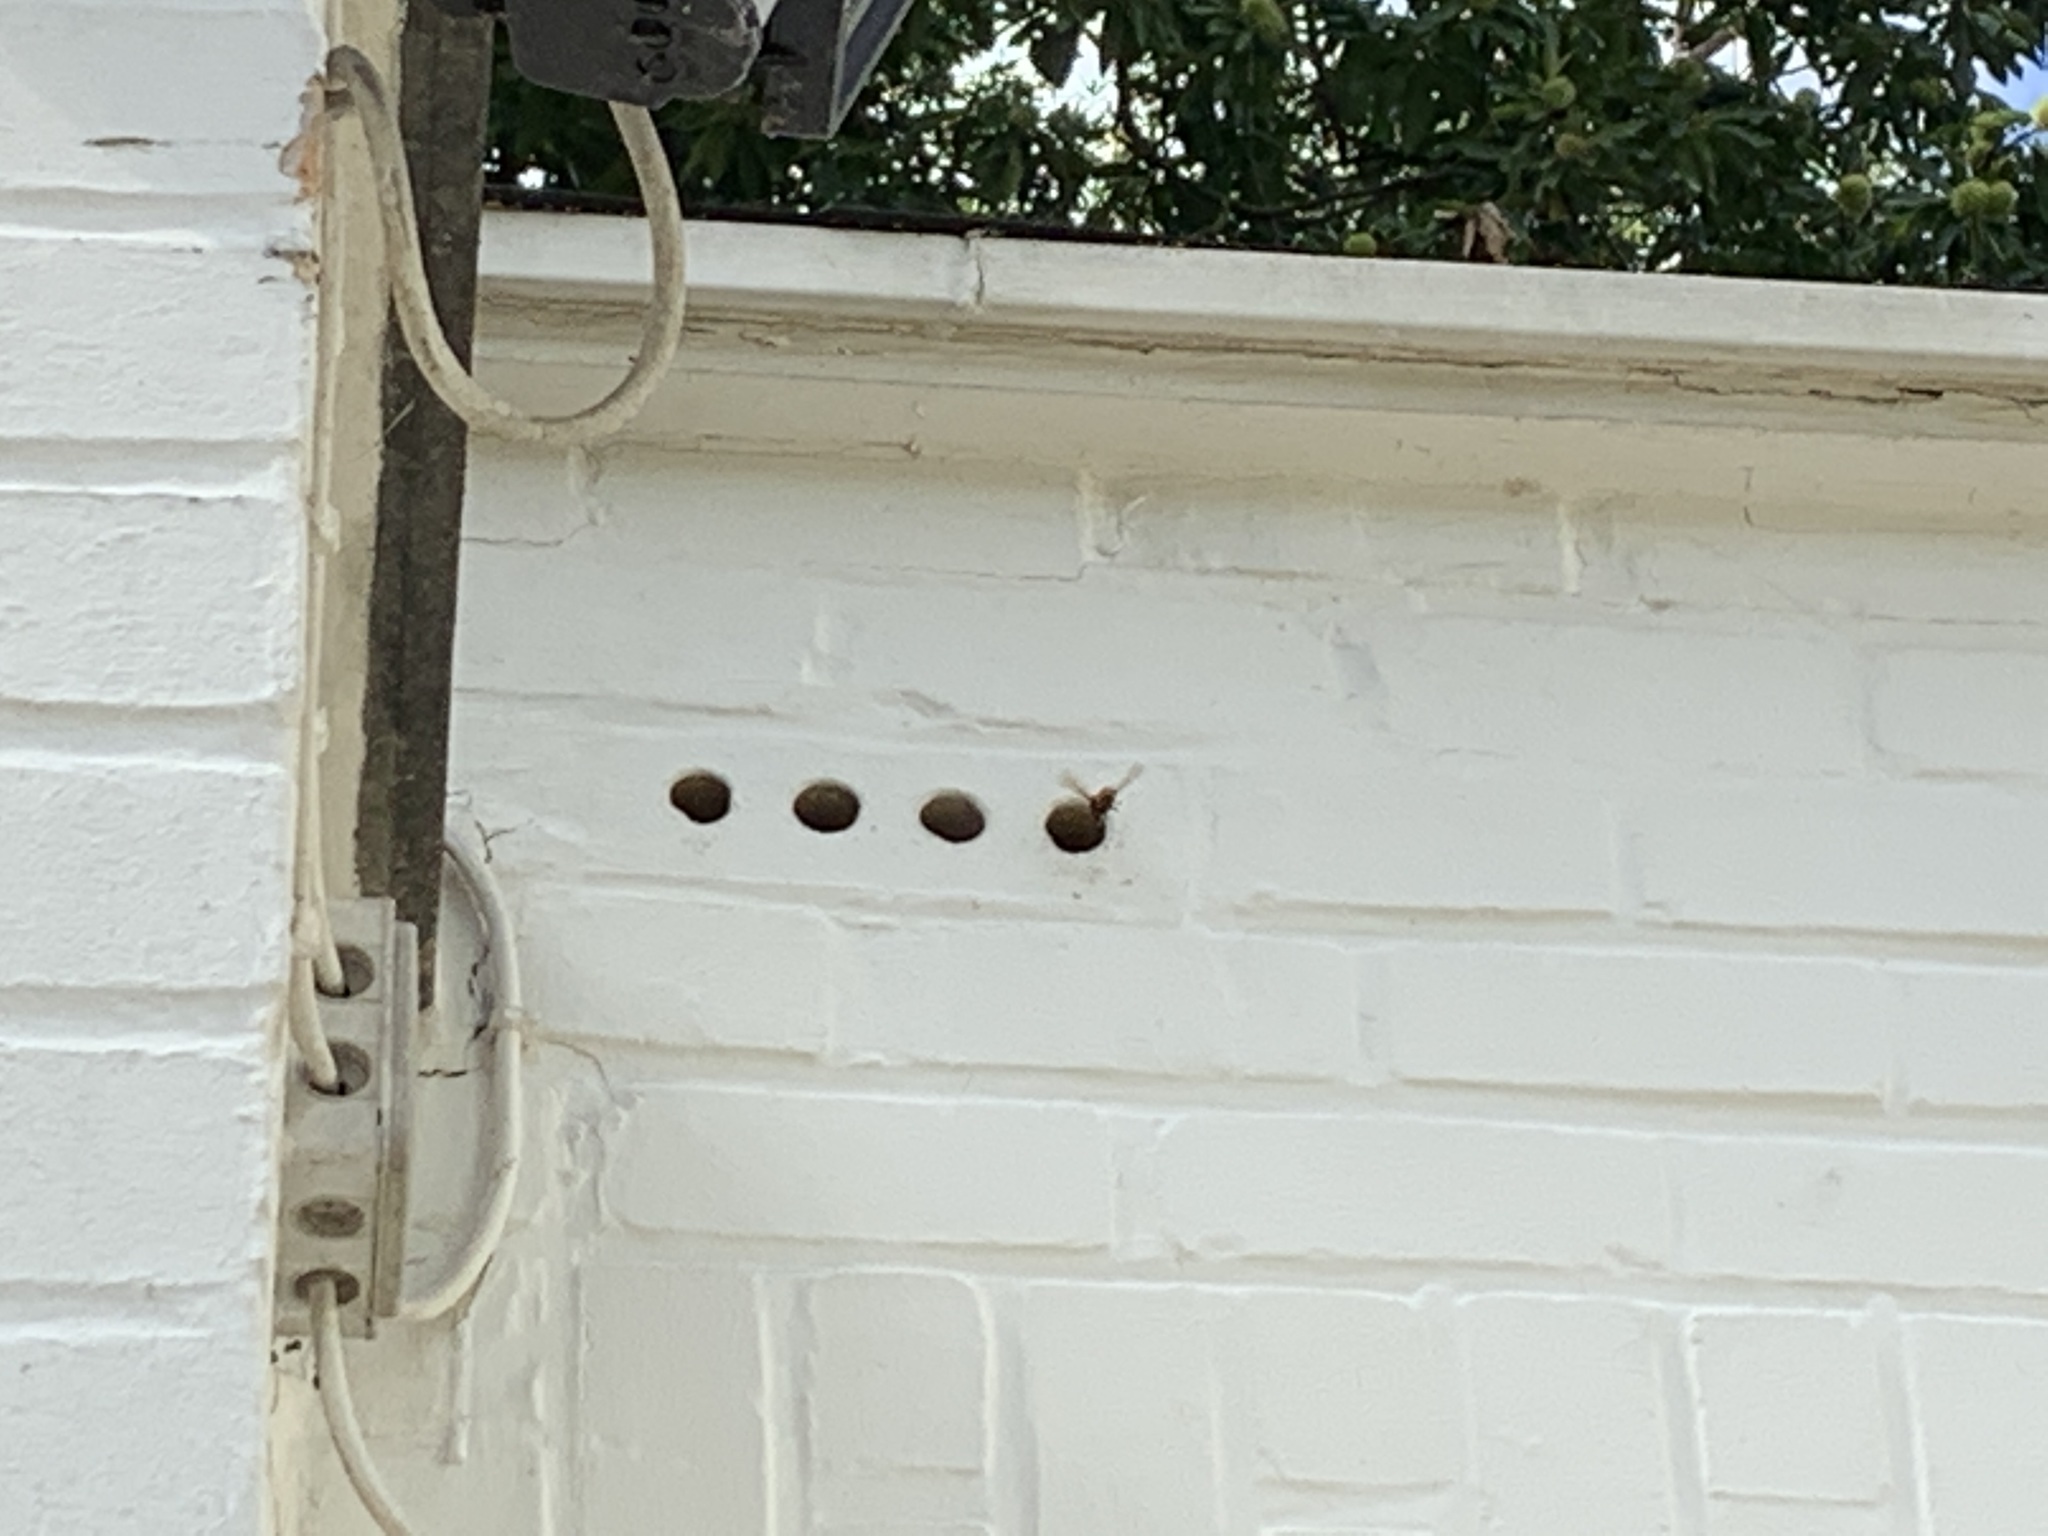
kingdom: Animalia
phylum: Arthropoda
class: Insecta
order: Hymenoptera
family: Vespidae
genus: Vespa
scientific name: Vespa crabro
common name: Hornet
